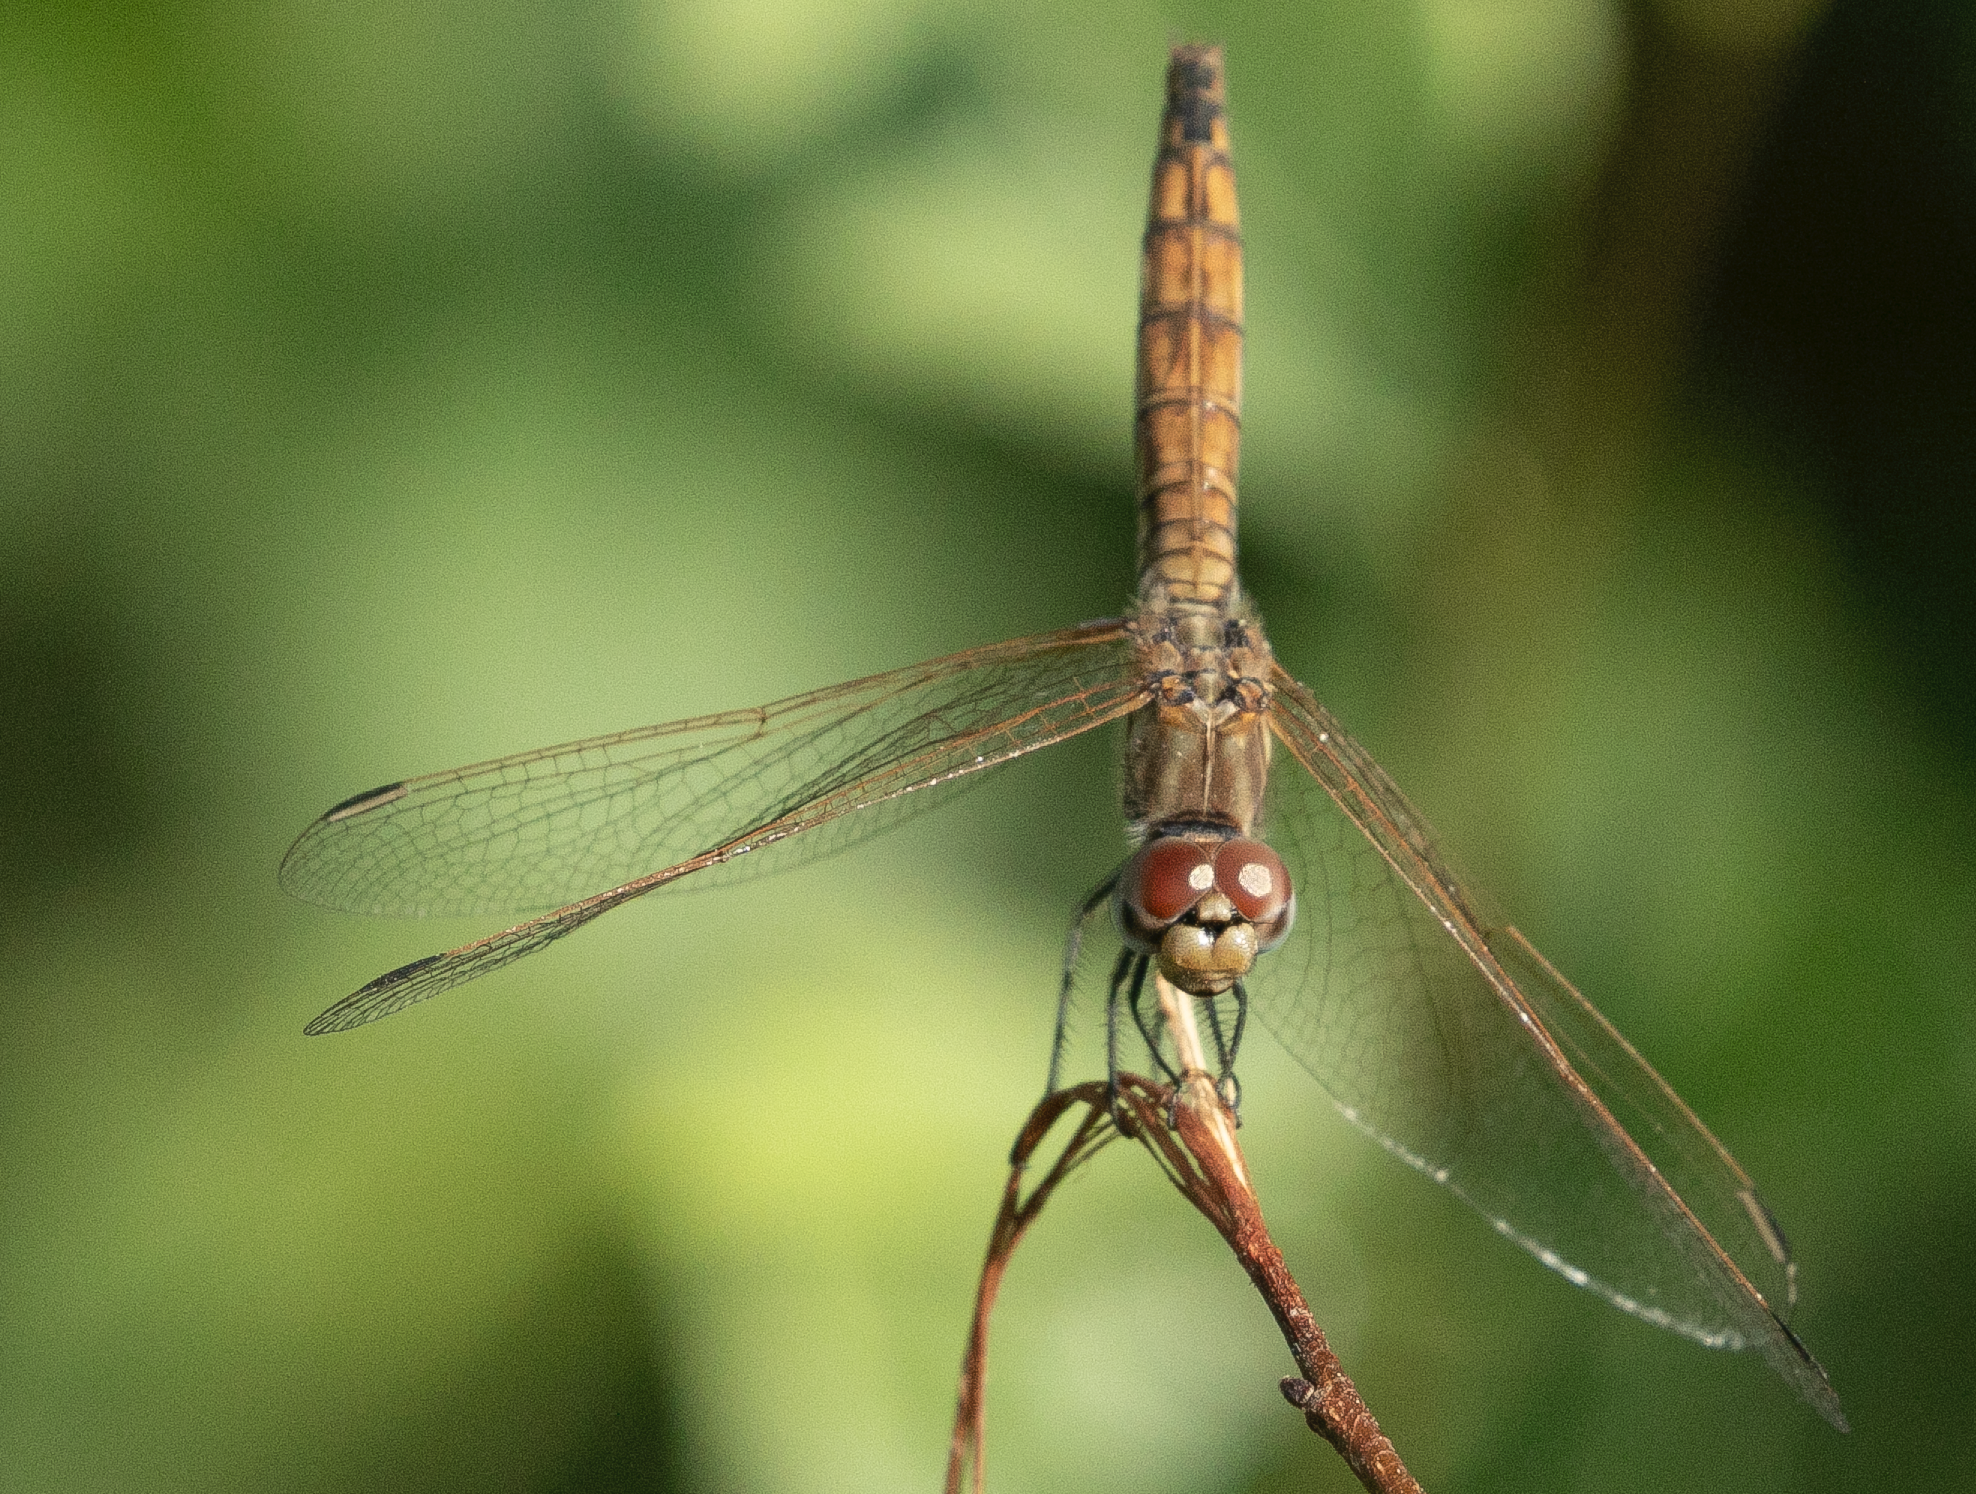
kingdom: Animalia
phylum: Arthropoda
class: Insecta
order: Odonata
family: Libellulidae
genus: Trithemis
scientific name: Trithemis annulata
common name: Violet dropwing
